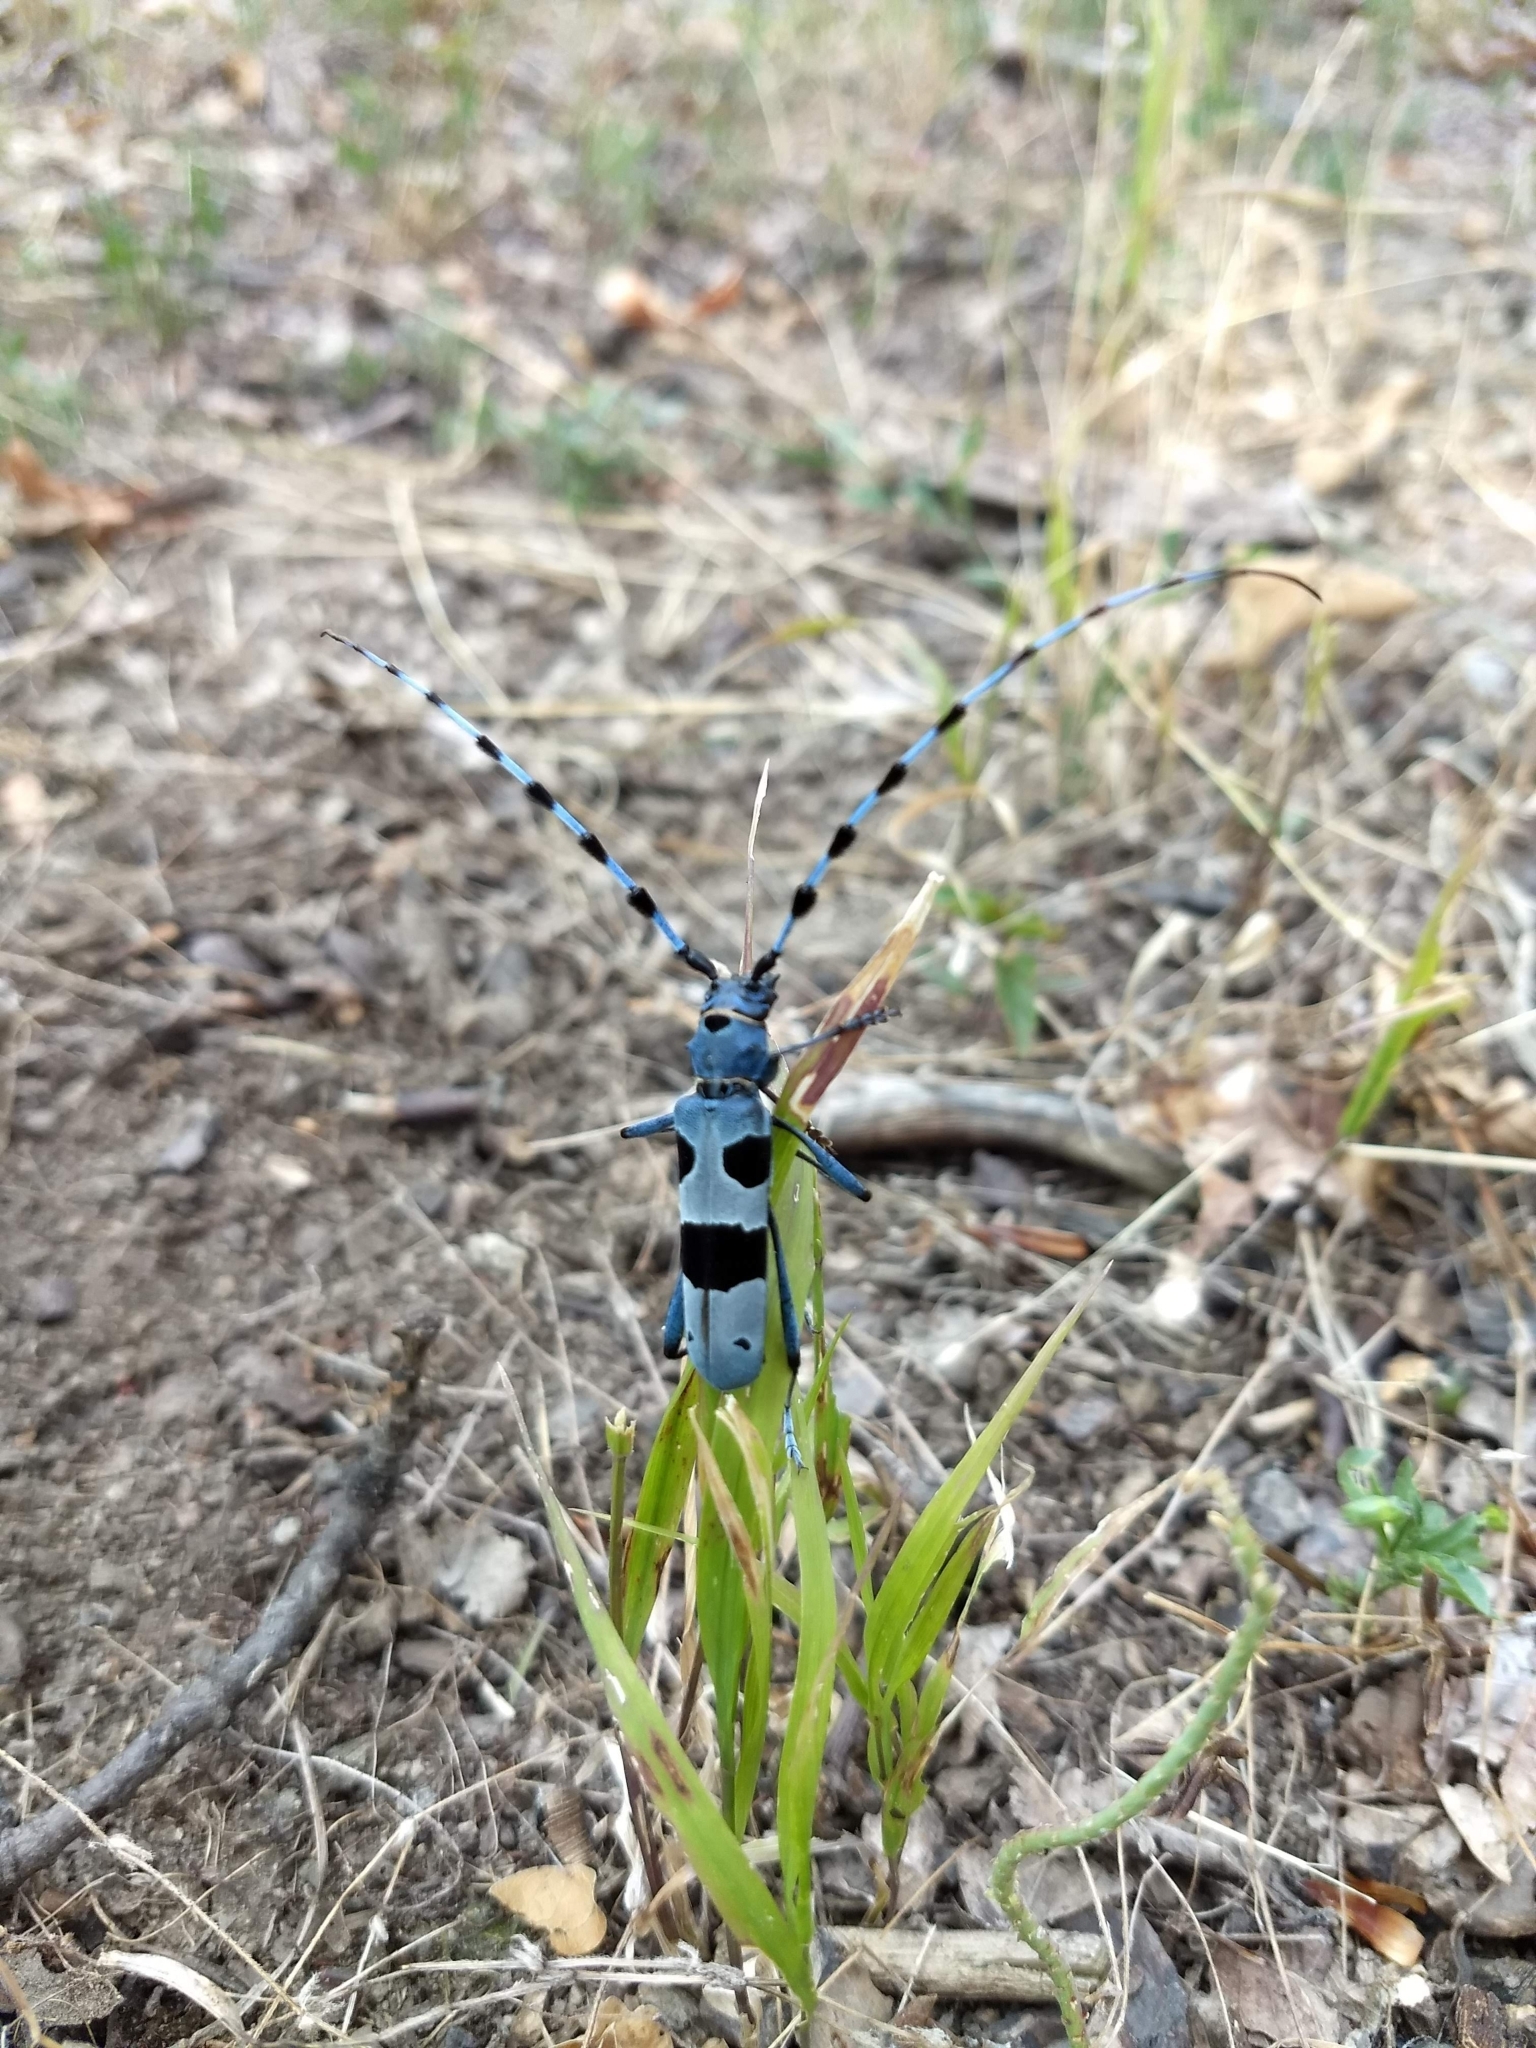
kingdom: Animalia
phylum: Arthropoda
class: Insecta
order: Coleoptera
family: Cerambycidae
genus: Rosalia
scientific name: Rosalia alpina
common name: Rosalia longicorn
